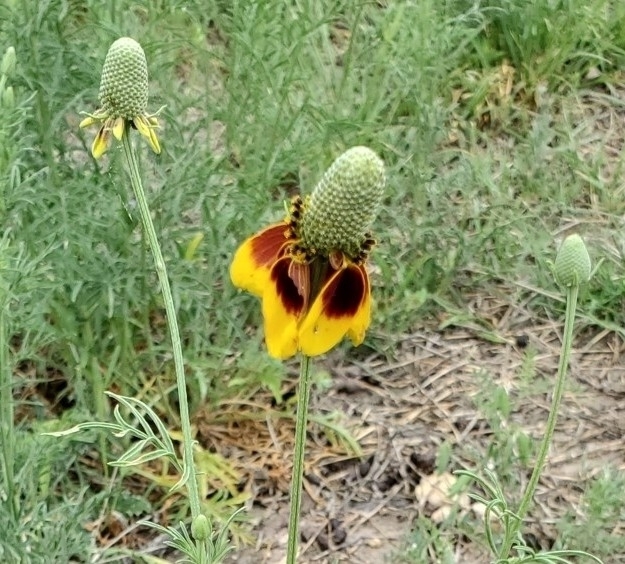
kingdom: Plantae
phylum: Tracheophyta
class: Magnoliopsida
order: Asterales
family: Asteraceae
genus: Ratibida
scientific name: Ratibida columnifera
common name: Prairie coneflower
